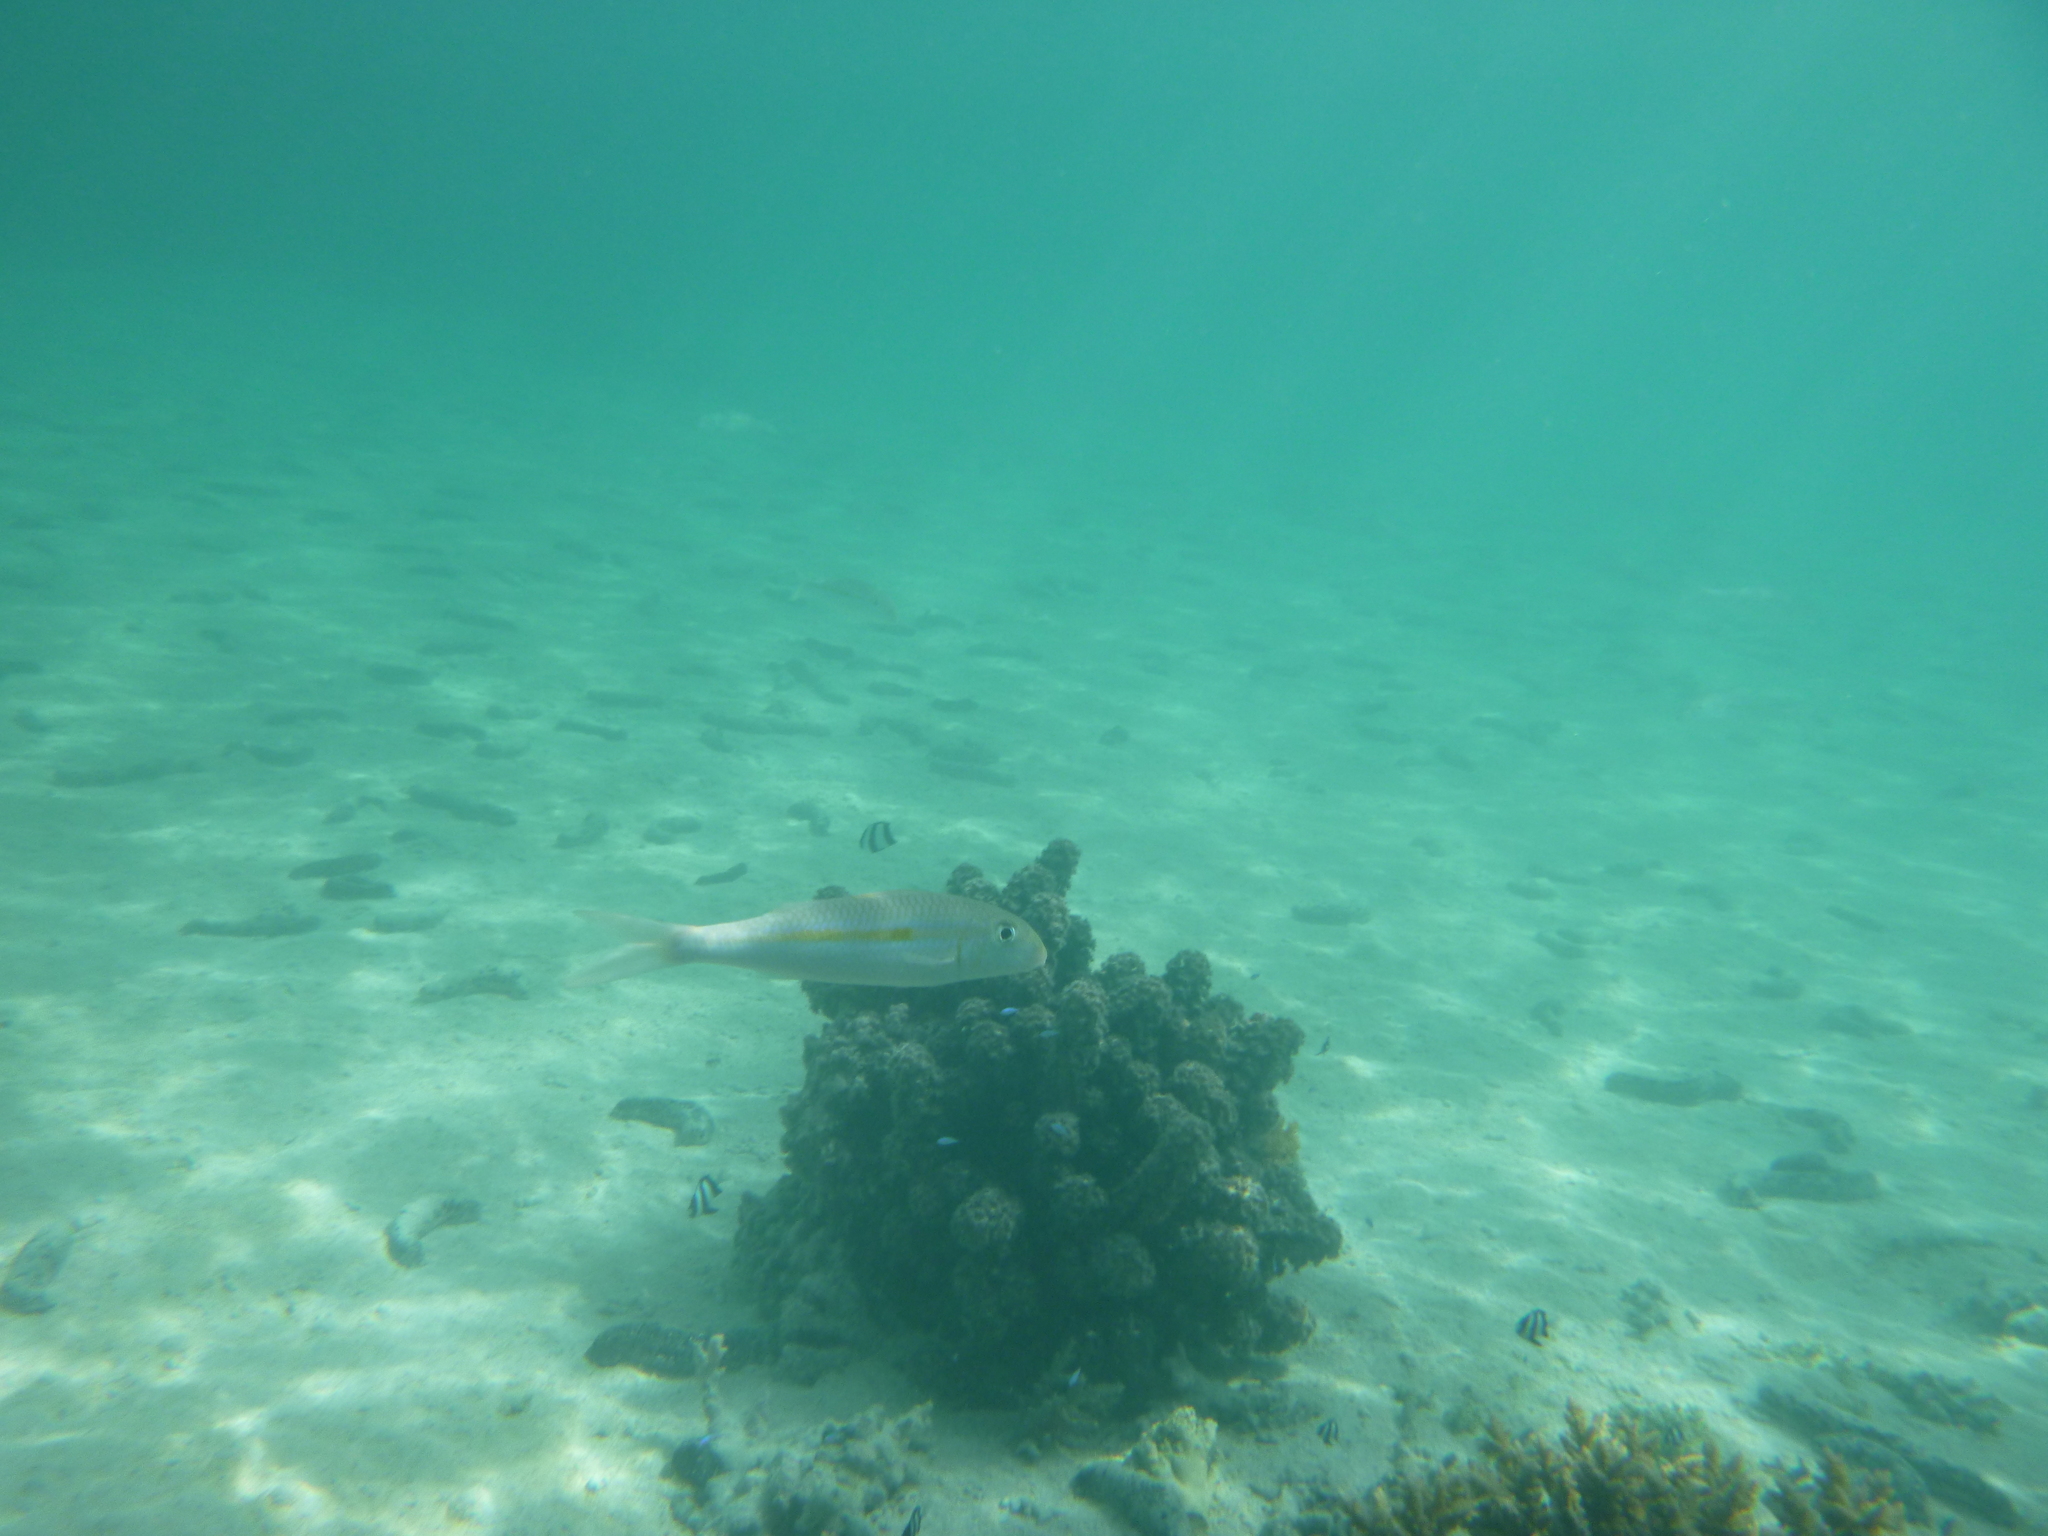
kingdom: Animalia
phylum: Chordata
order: Perciformes
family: Mullidae
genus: Mulloidichthys
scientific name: Mulloidichthys flavolineatus
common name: Yellowstripe goatfish
